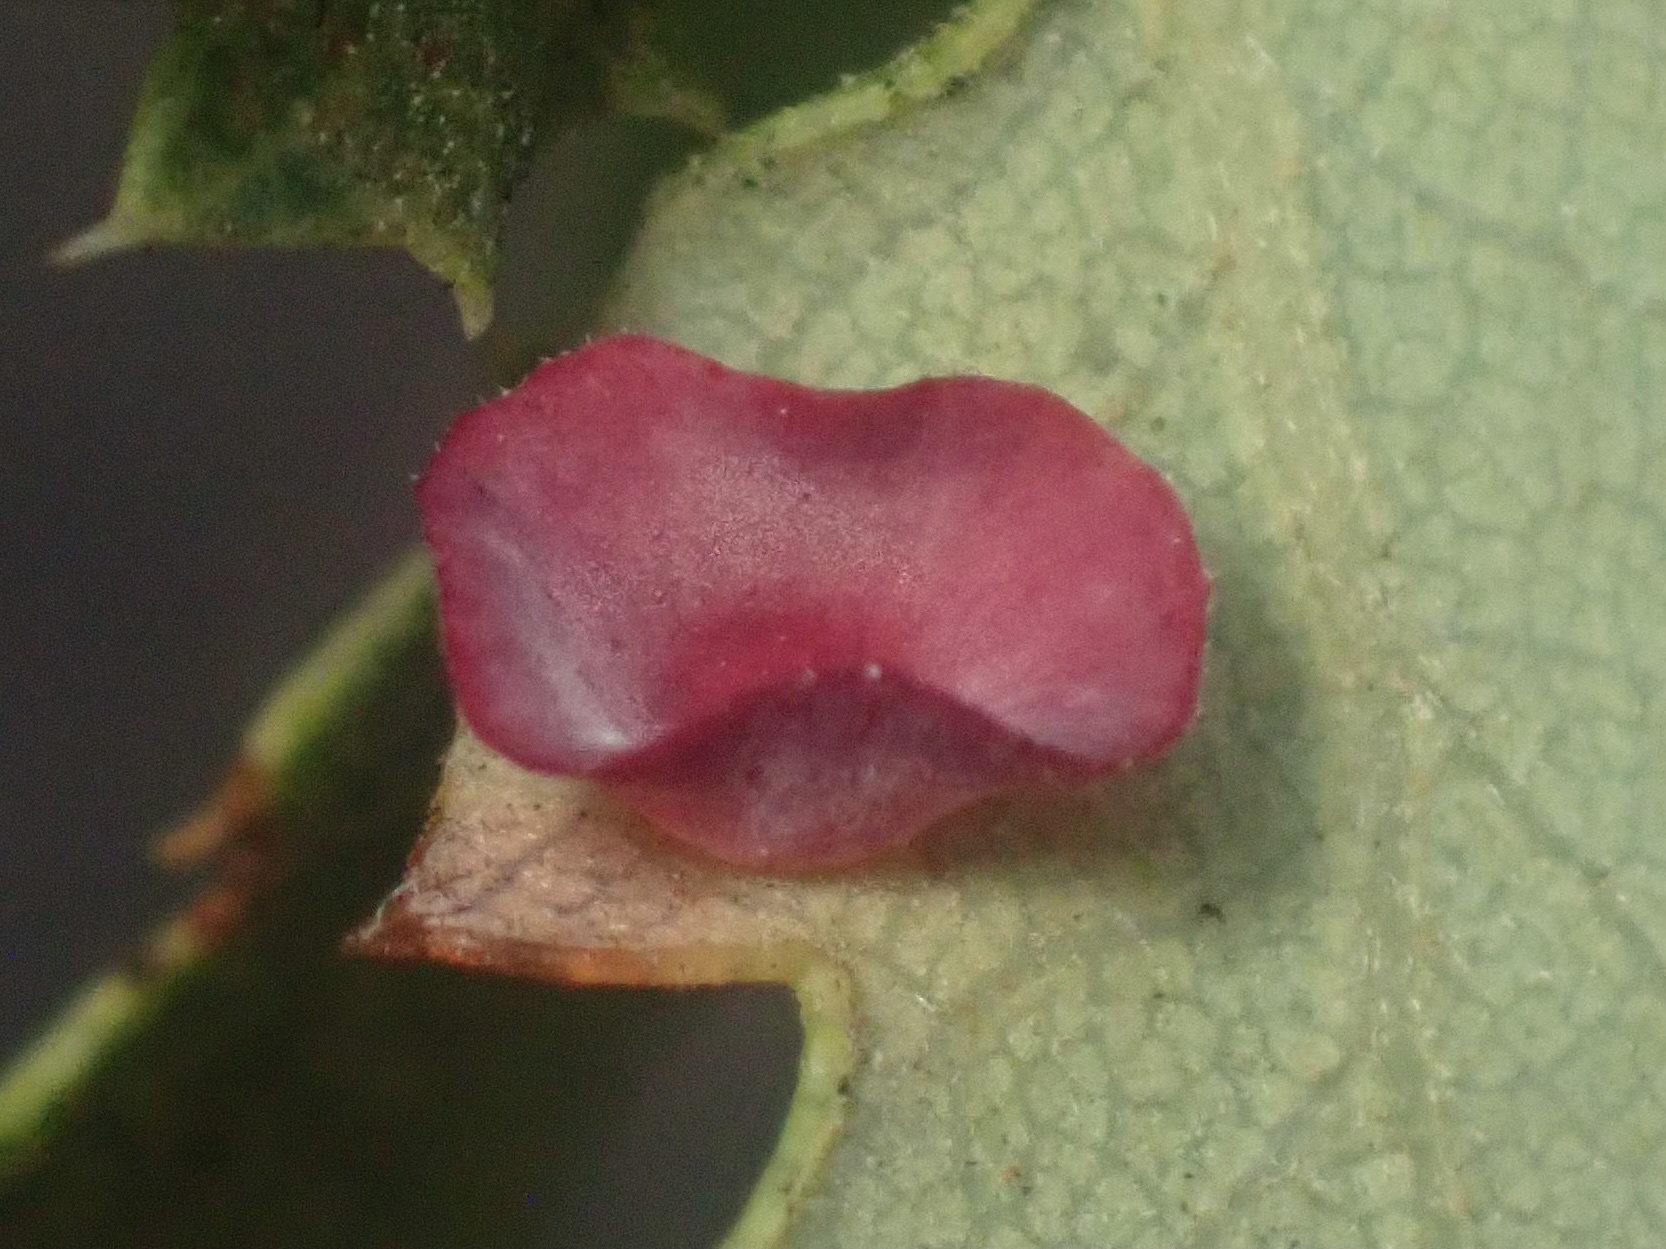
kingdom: Animalia
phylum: Arthropoda
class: Insecta
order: Hymenoptera
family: Cynipidae
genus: Andricus
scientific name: Andricus
